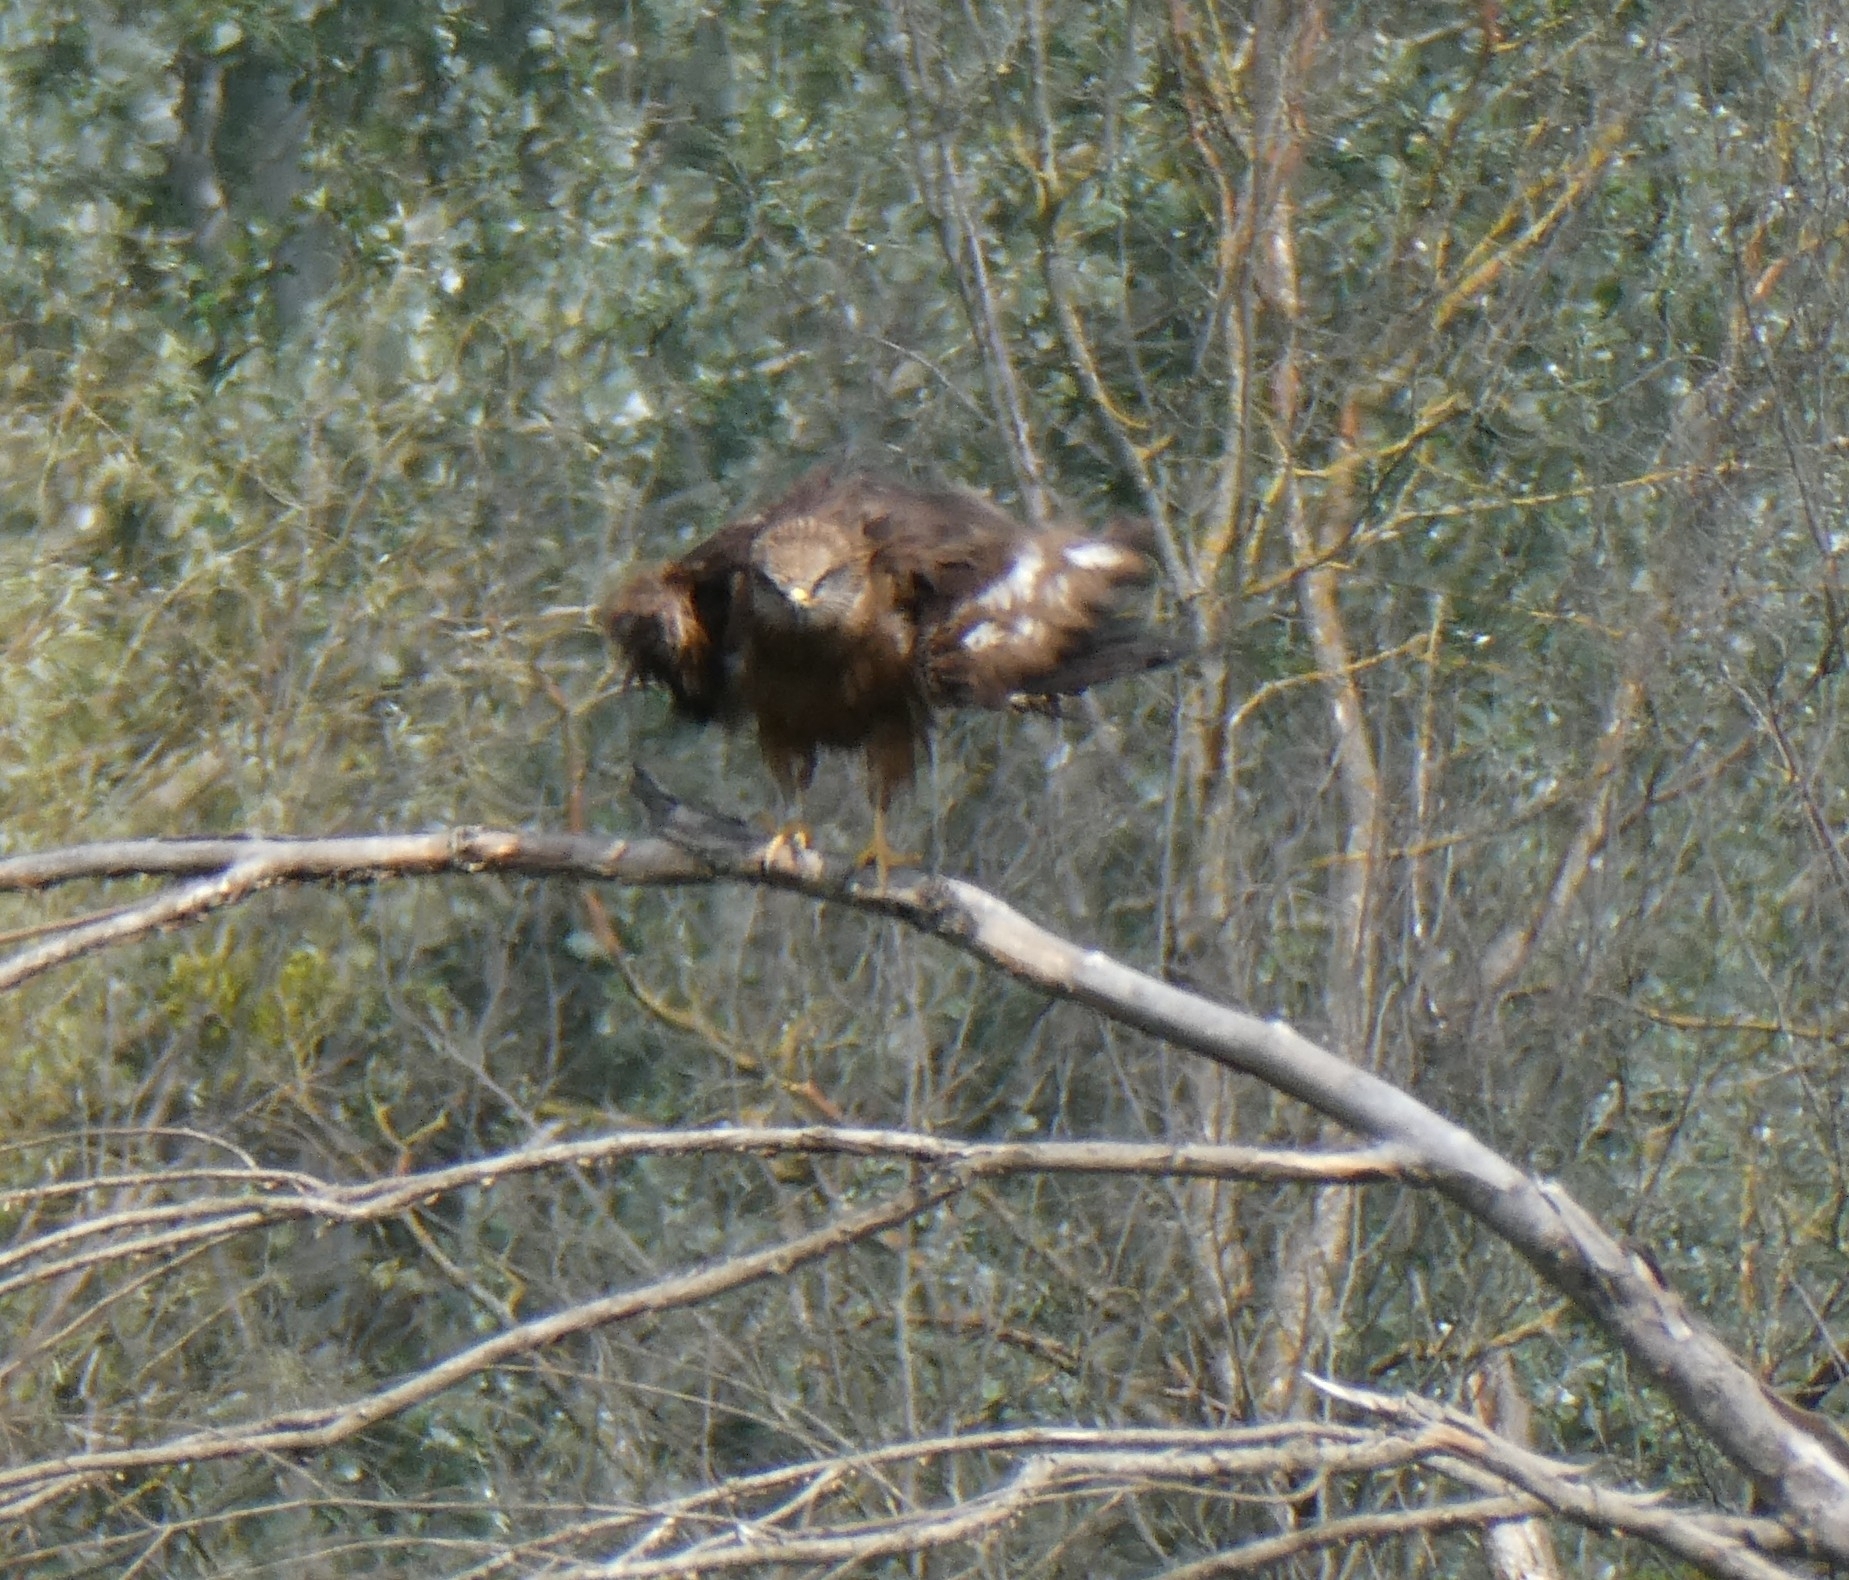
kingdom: Animalia
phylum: Chordata
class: Aves
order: Accipitriformes
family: Accipitridae
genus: Milvus
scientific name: Milvus migrans
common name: Black kite
